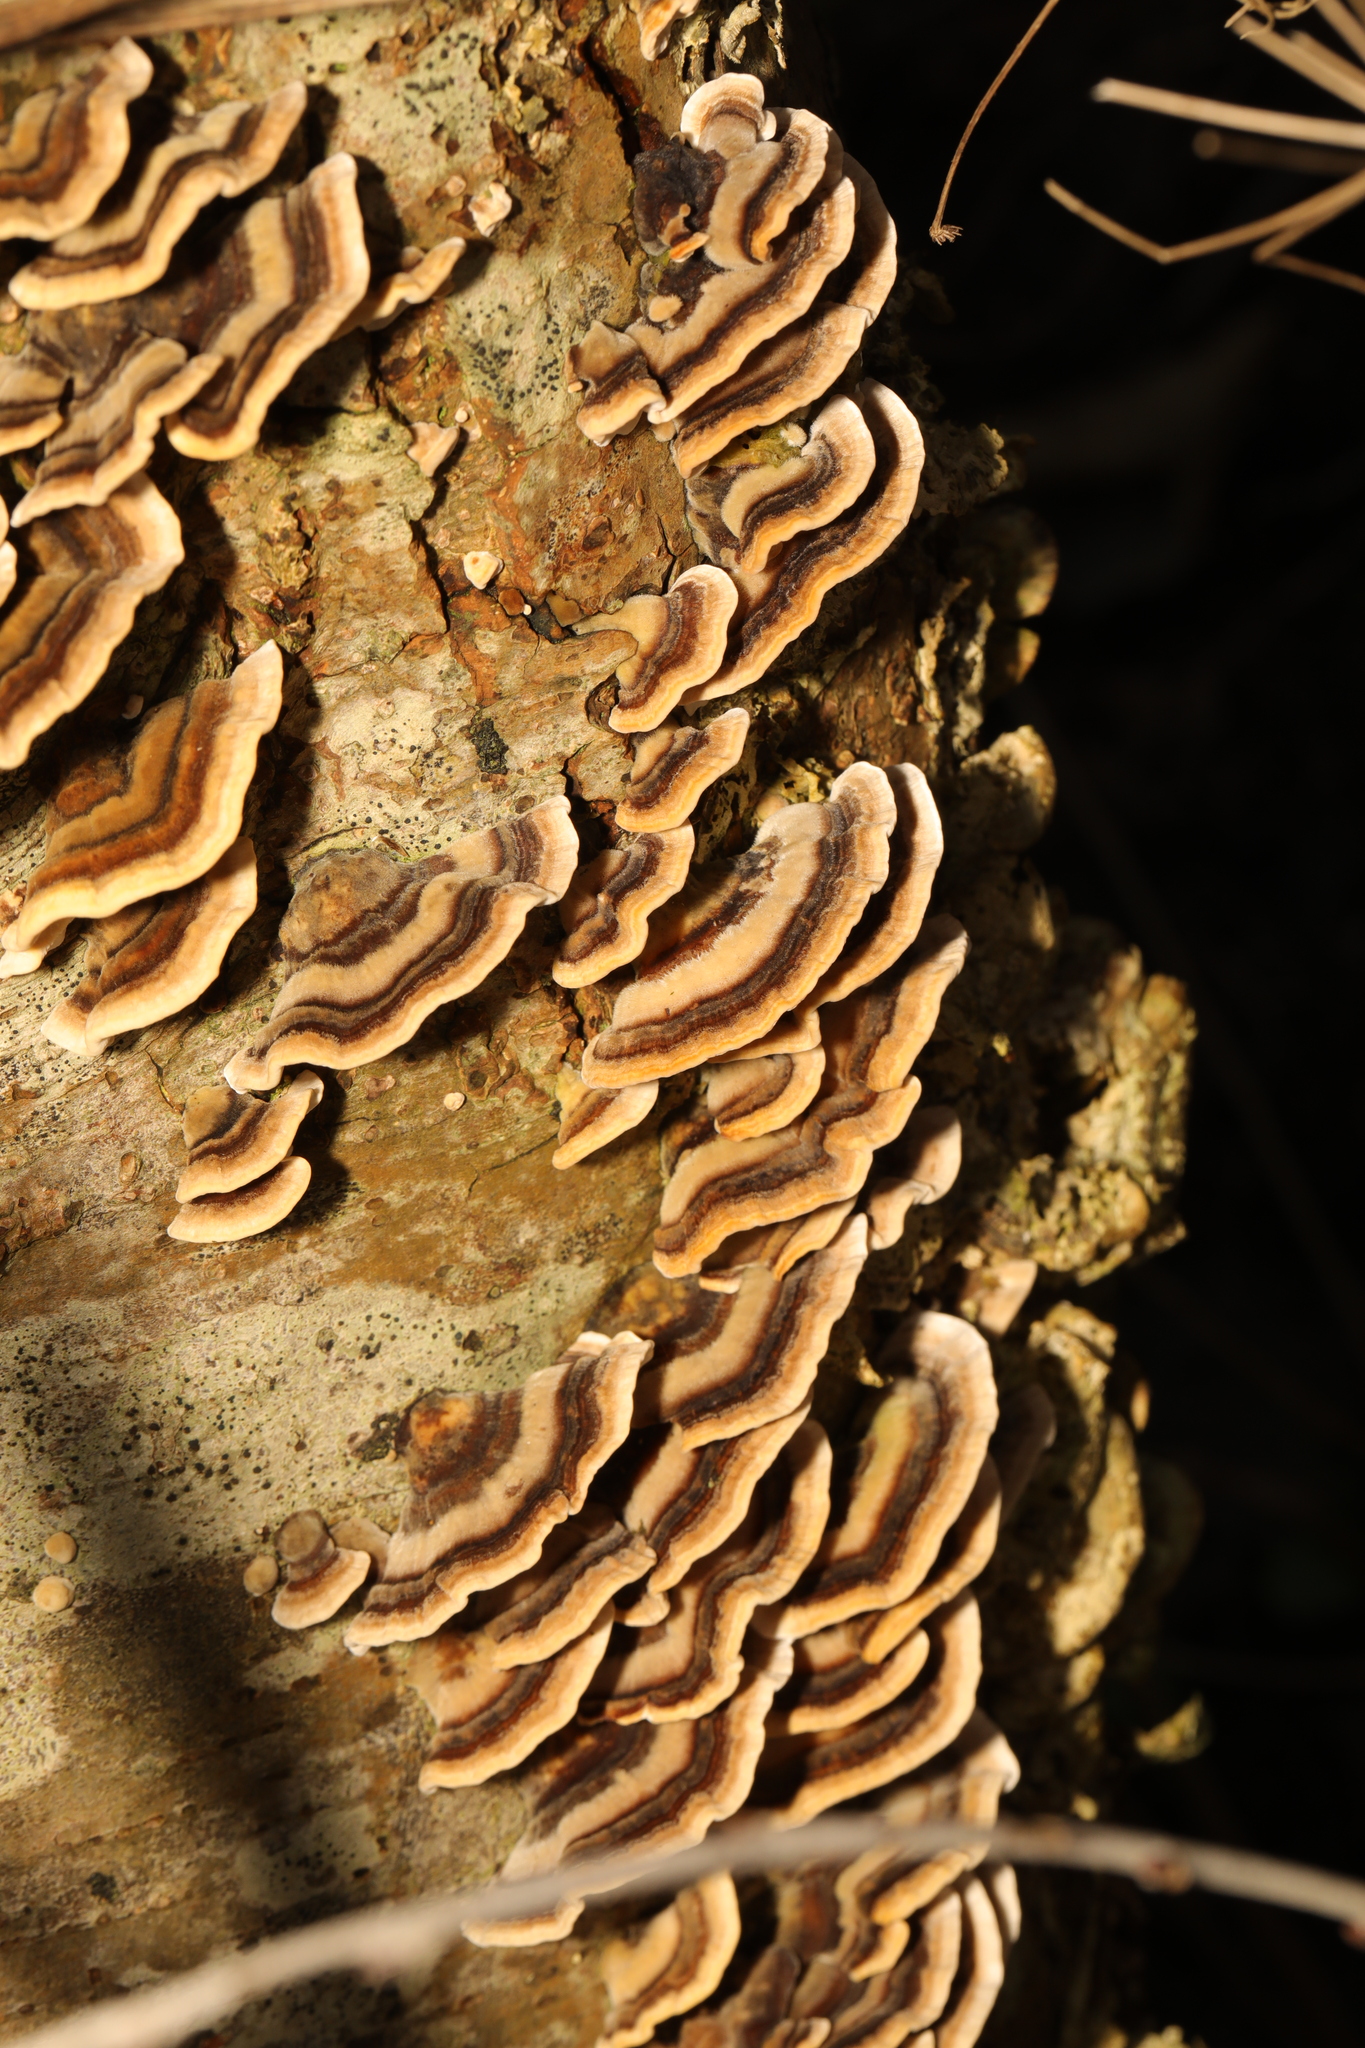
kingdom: Fungi
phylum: Basidiomycota
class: Agaricomycetes
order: Polyporales
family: Polyporaceae
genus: Trametes
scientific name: Trametes versicolor
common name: Turkeytail
